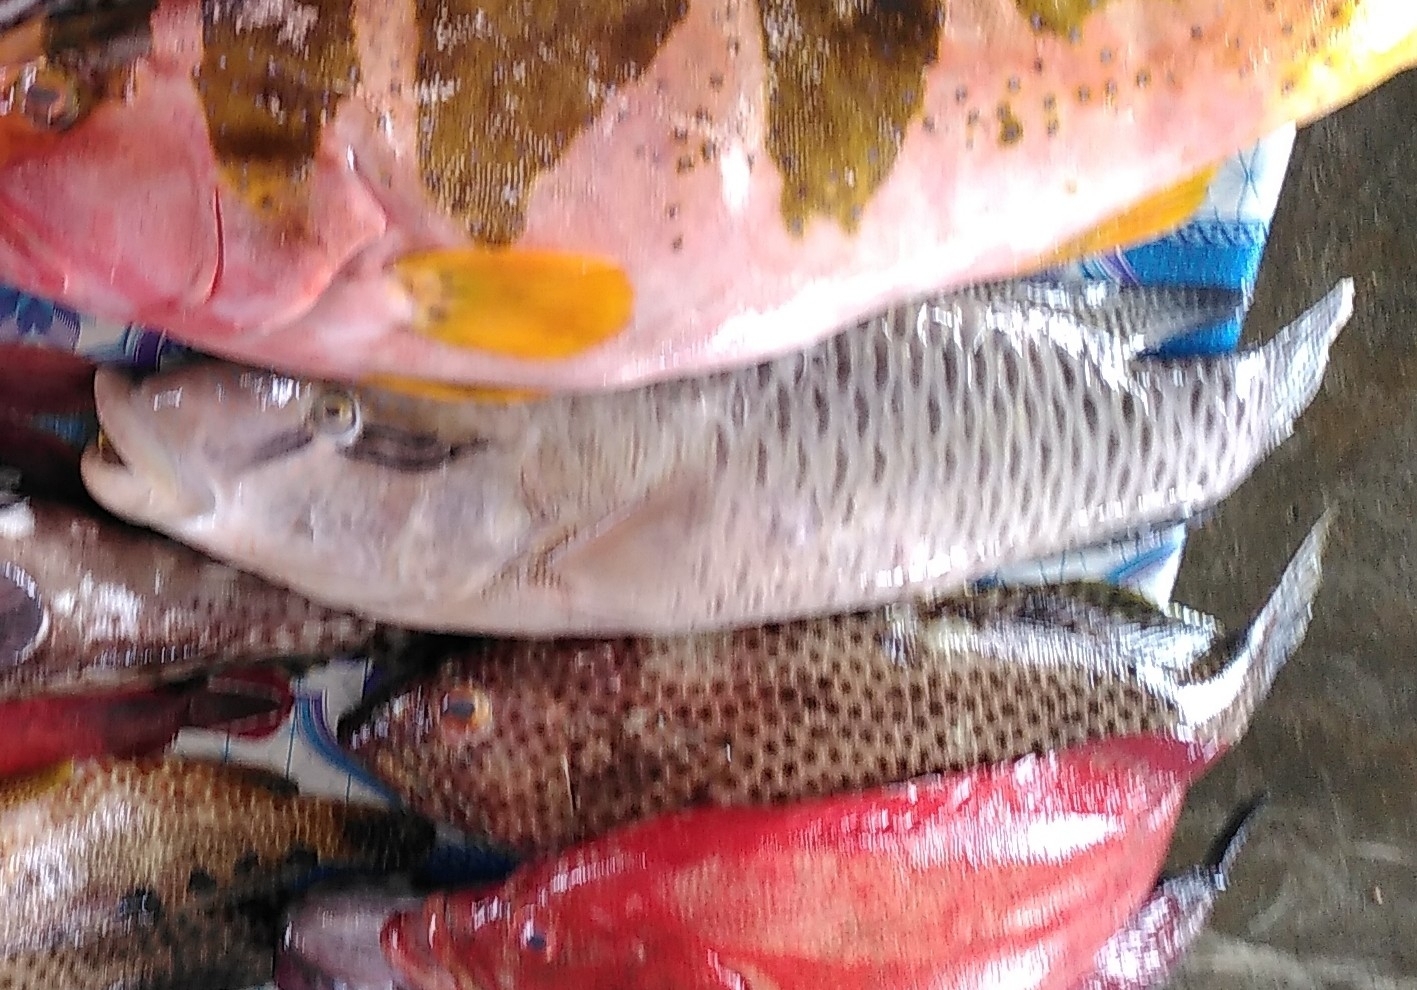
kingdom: Animalia
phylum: Chordata
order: Perciformes
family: Labridae
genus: Cheilinus
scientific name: Cheilinus undulatus
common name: Humphead wrasse
